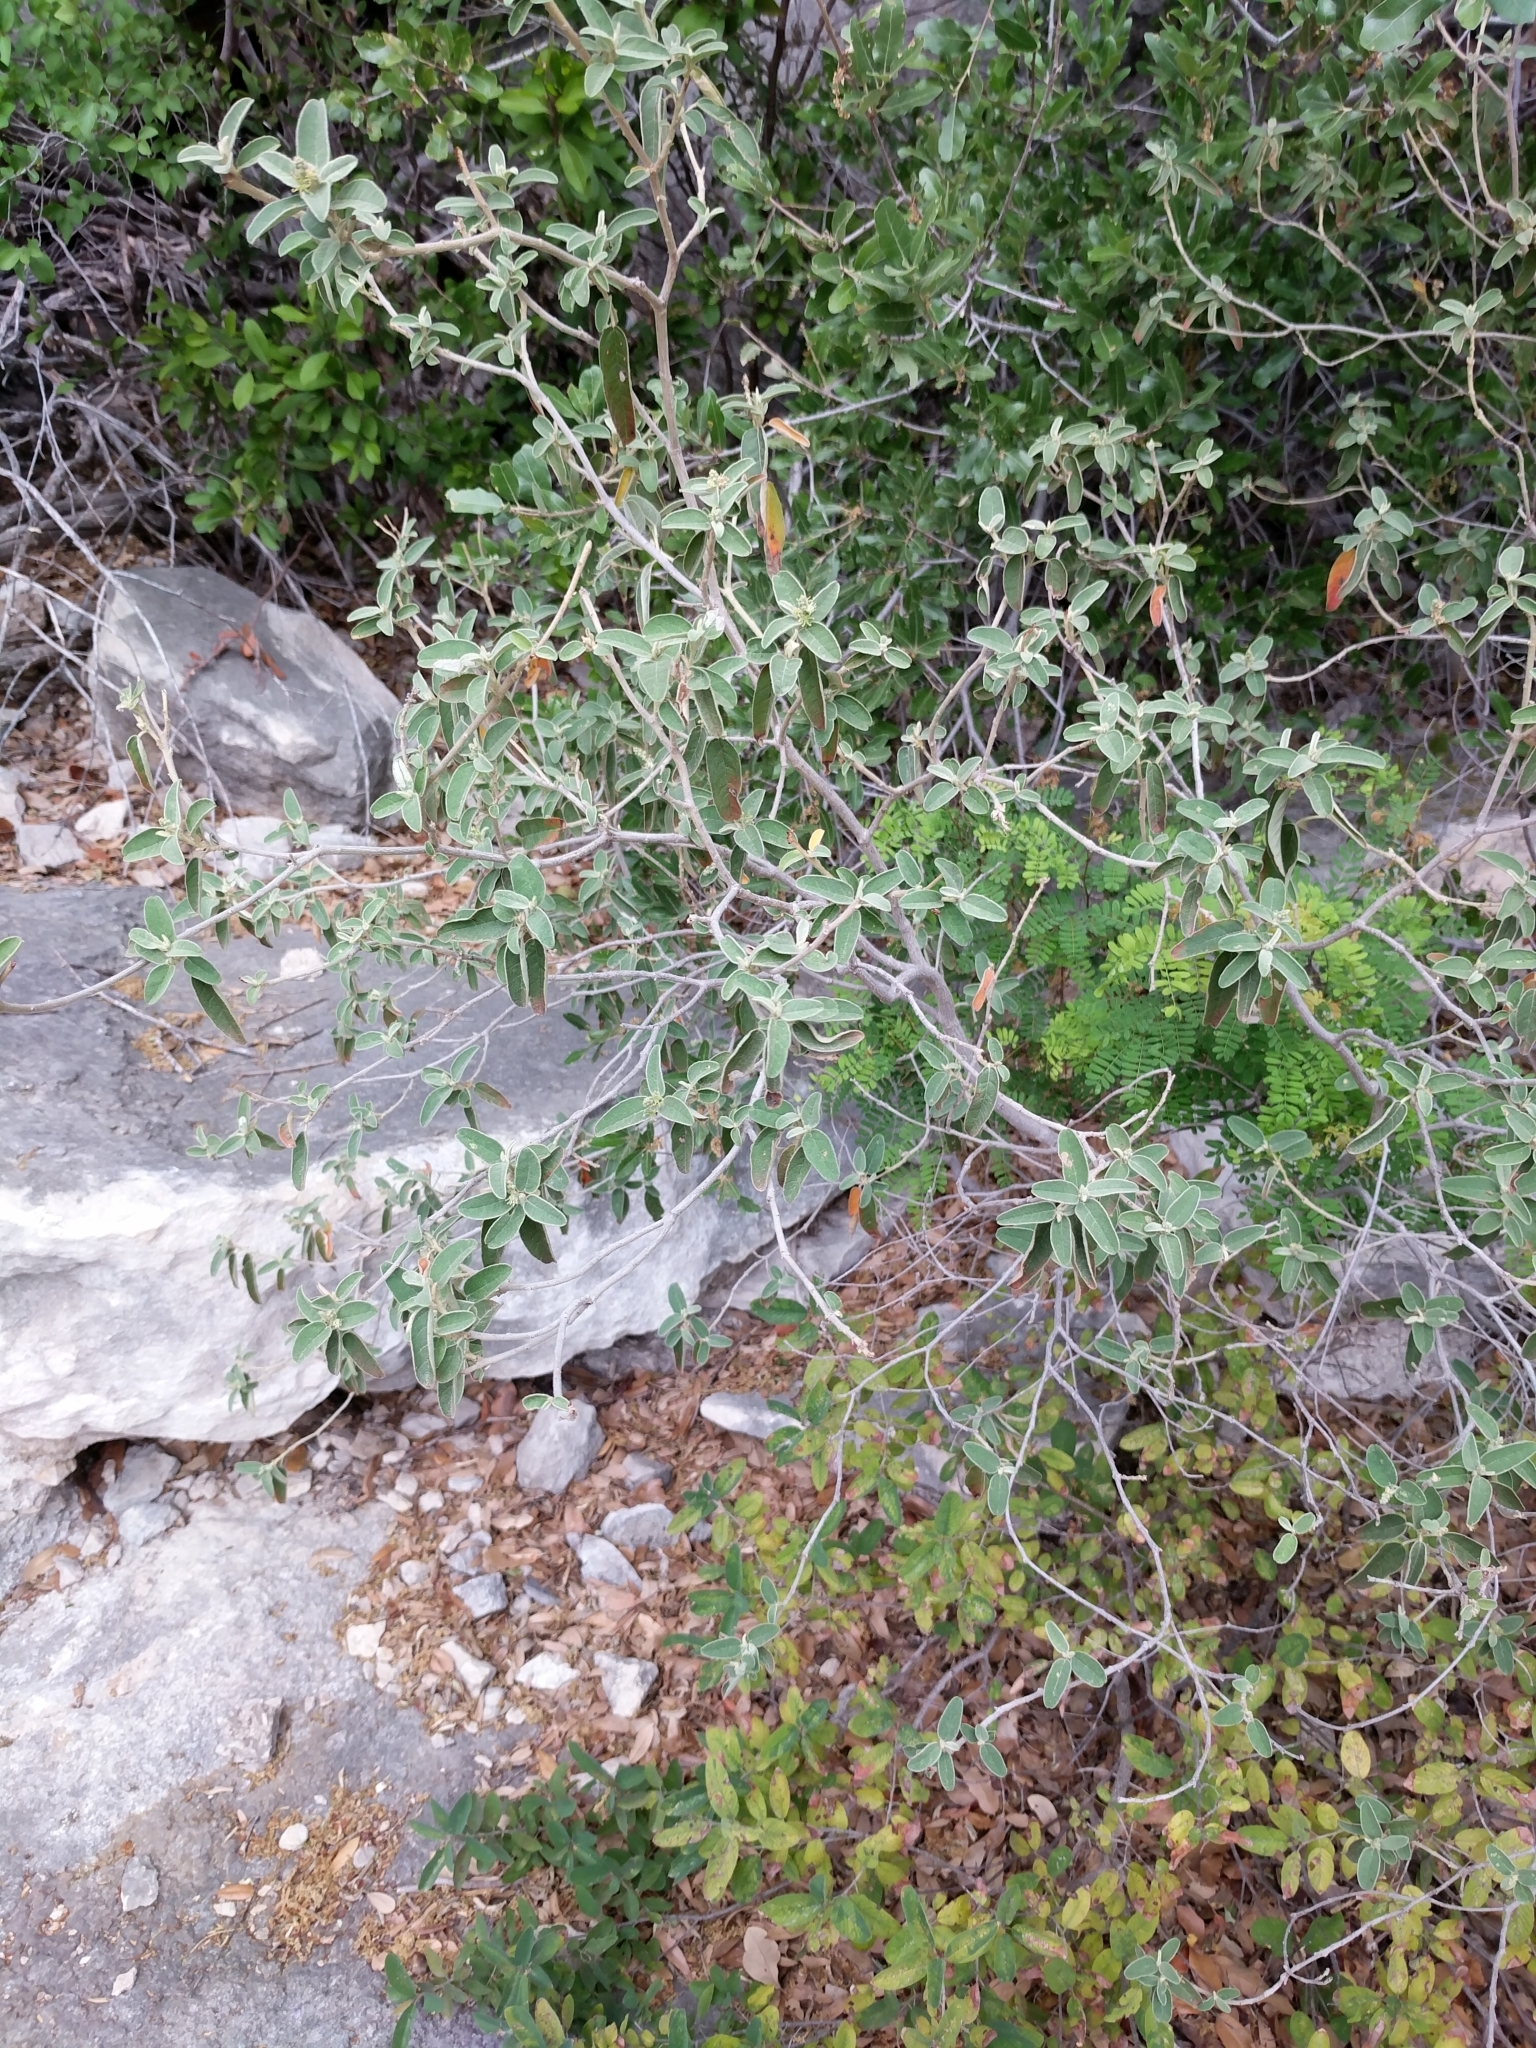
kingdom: Plantae
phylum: Tracheophyta
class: Magnoliopsida
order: Malpighiales
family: Euphorbiaceae
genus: Croton
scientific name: Croton incanus
